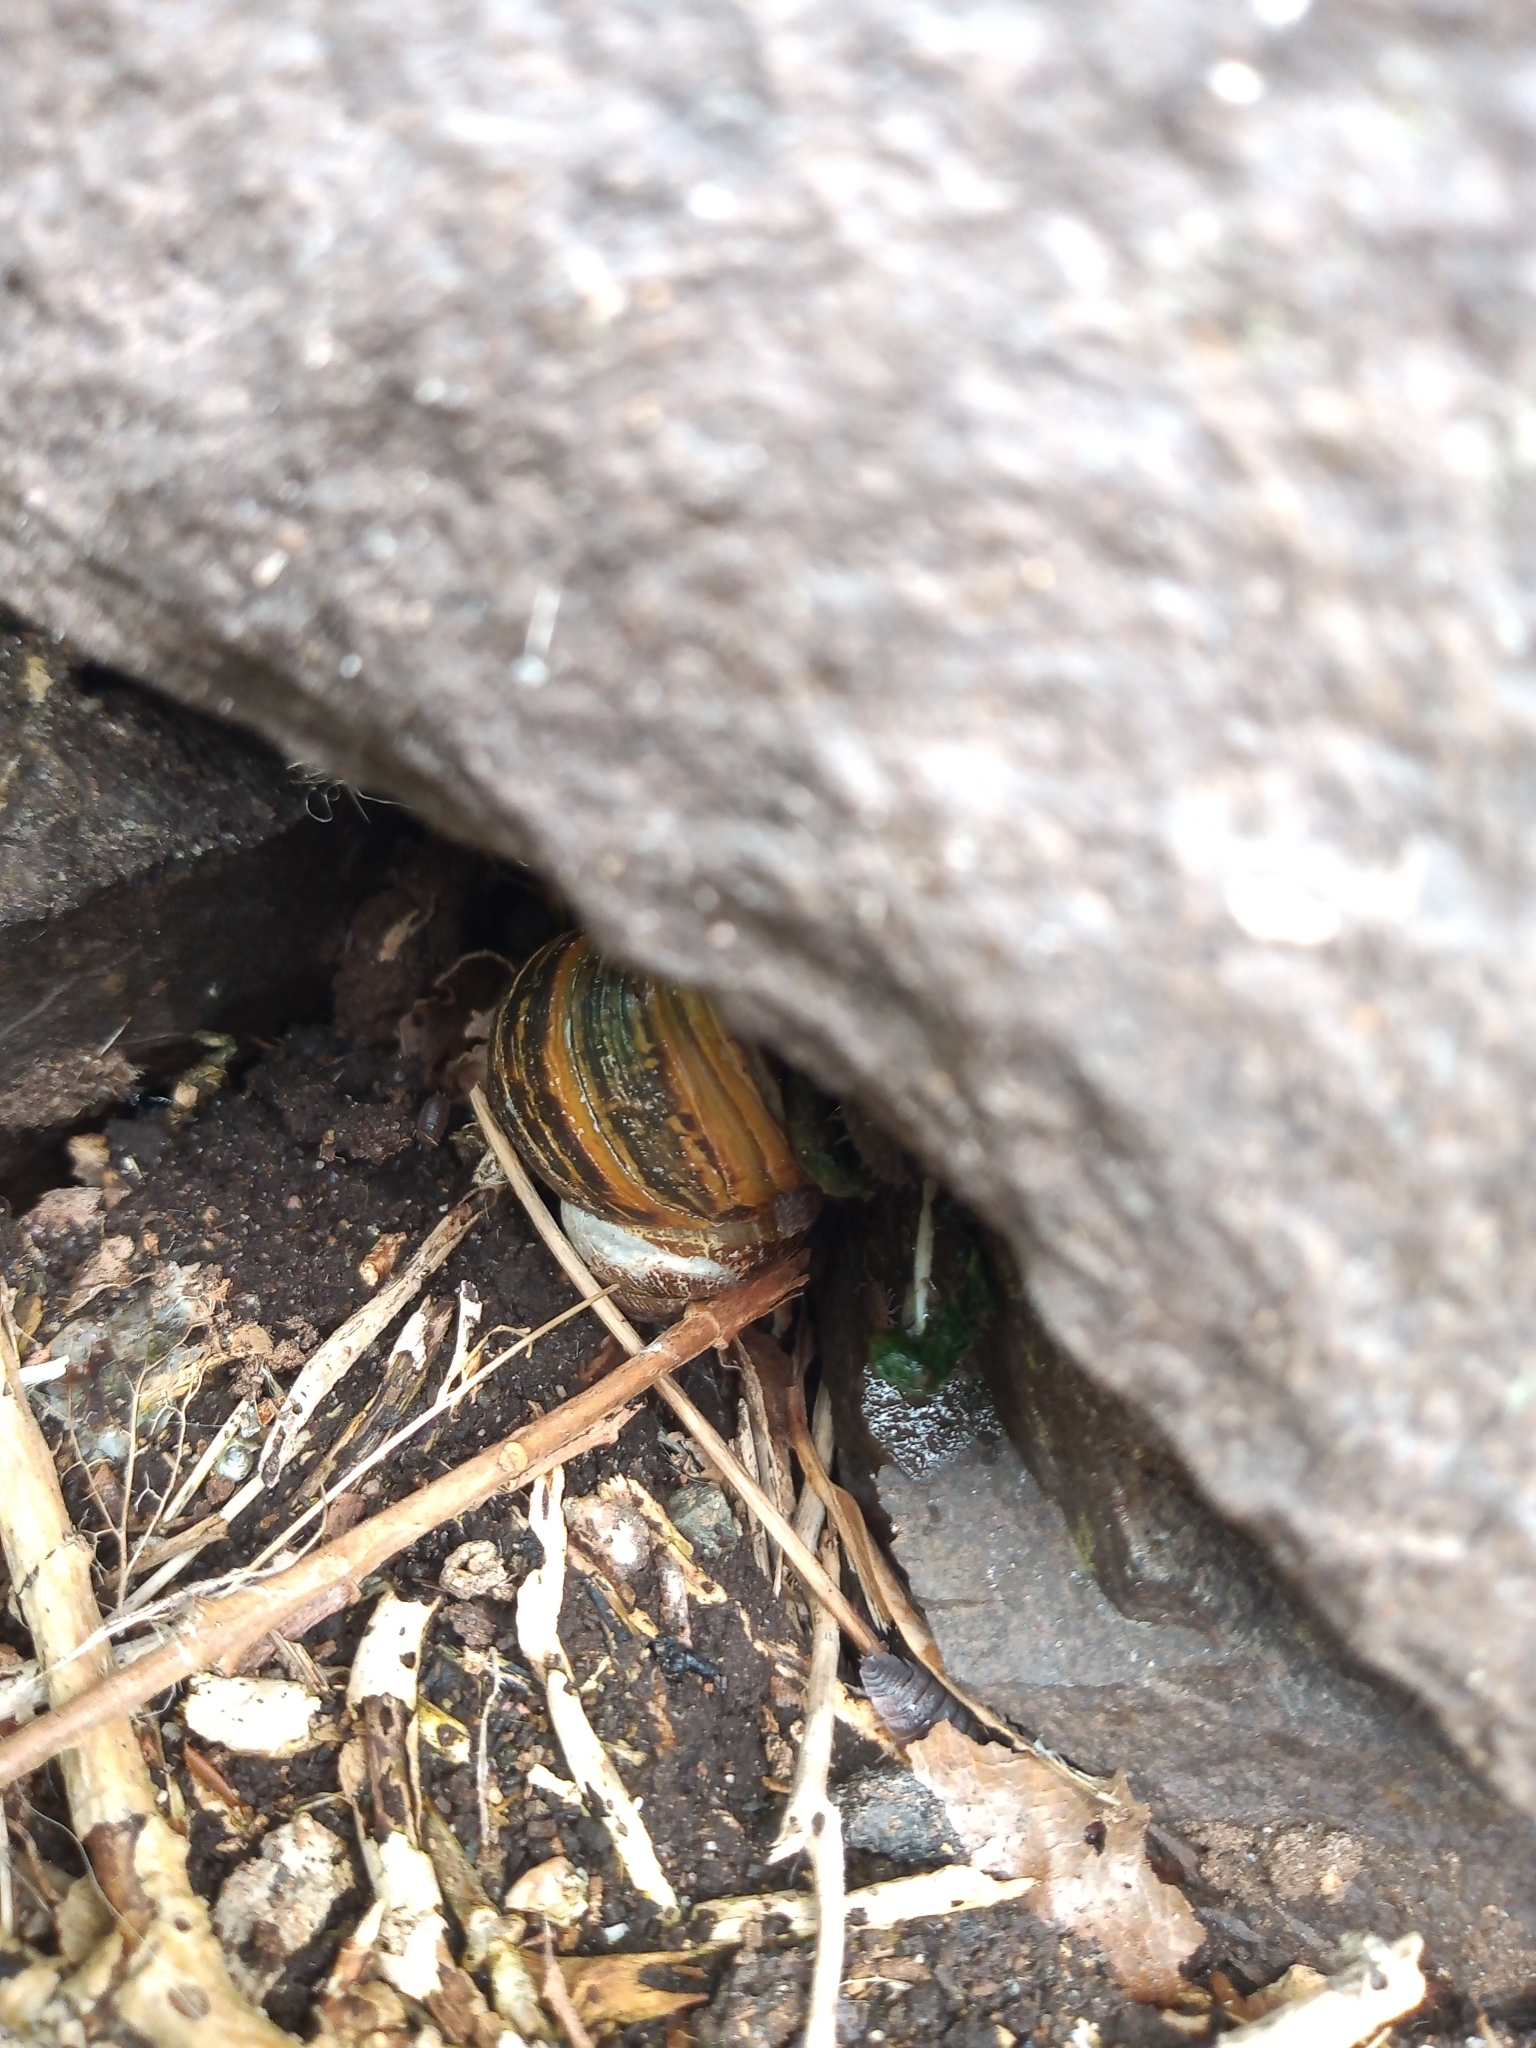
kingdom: Animalia
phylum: Mollusca
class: Gastropoda
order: Stylommatophora
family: Helicidae
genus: Cornu
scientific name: Cornu aspersum
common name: Brown garden snail
